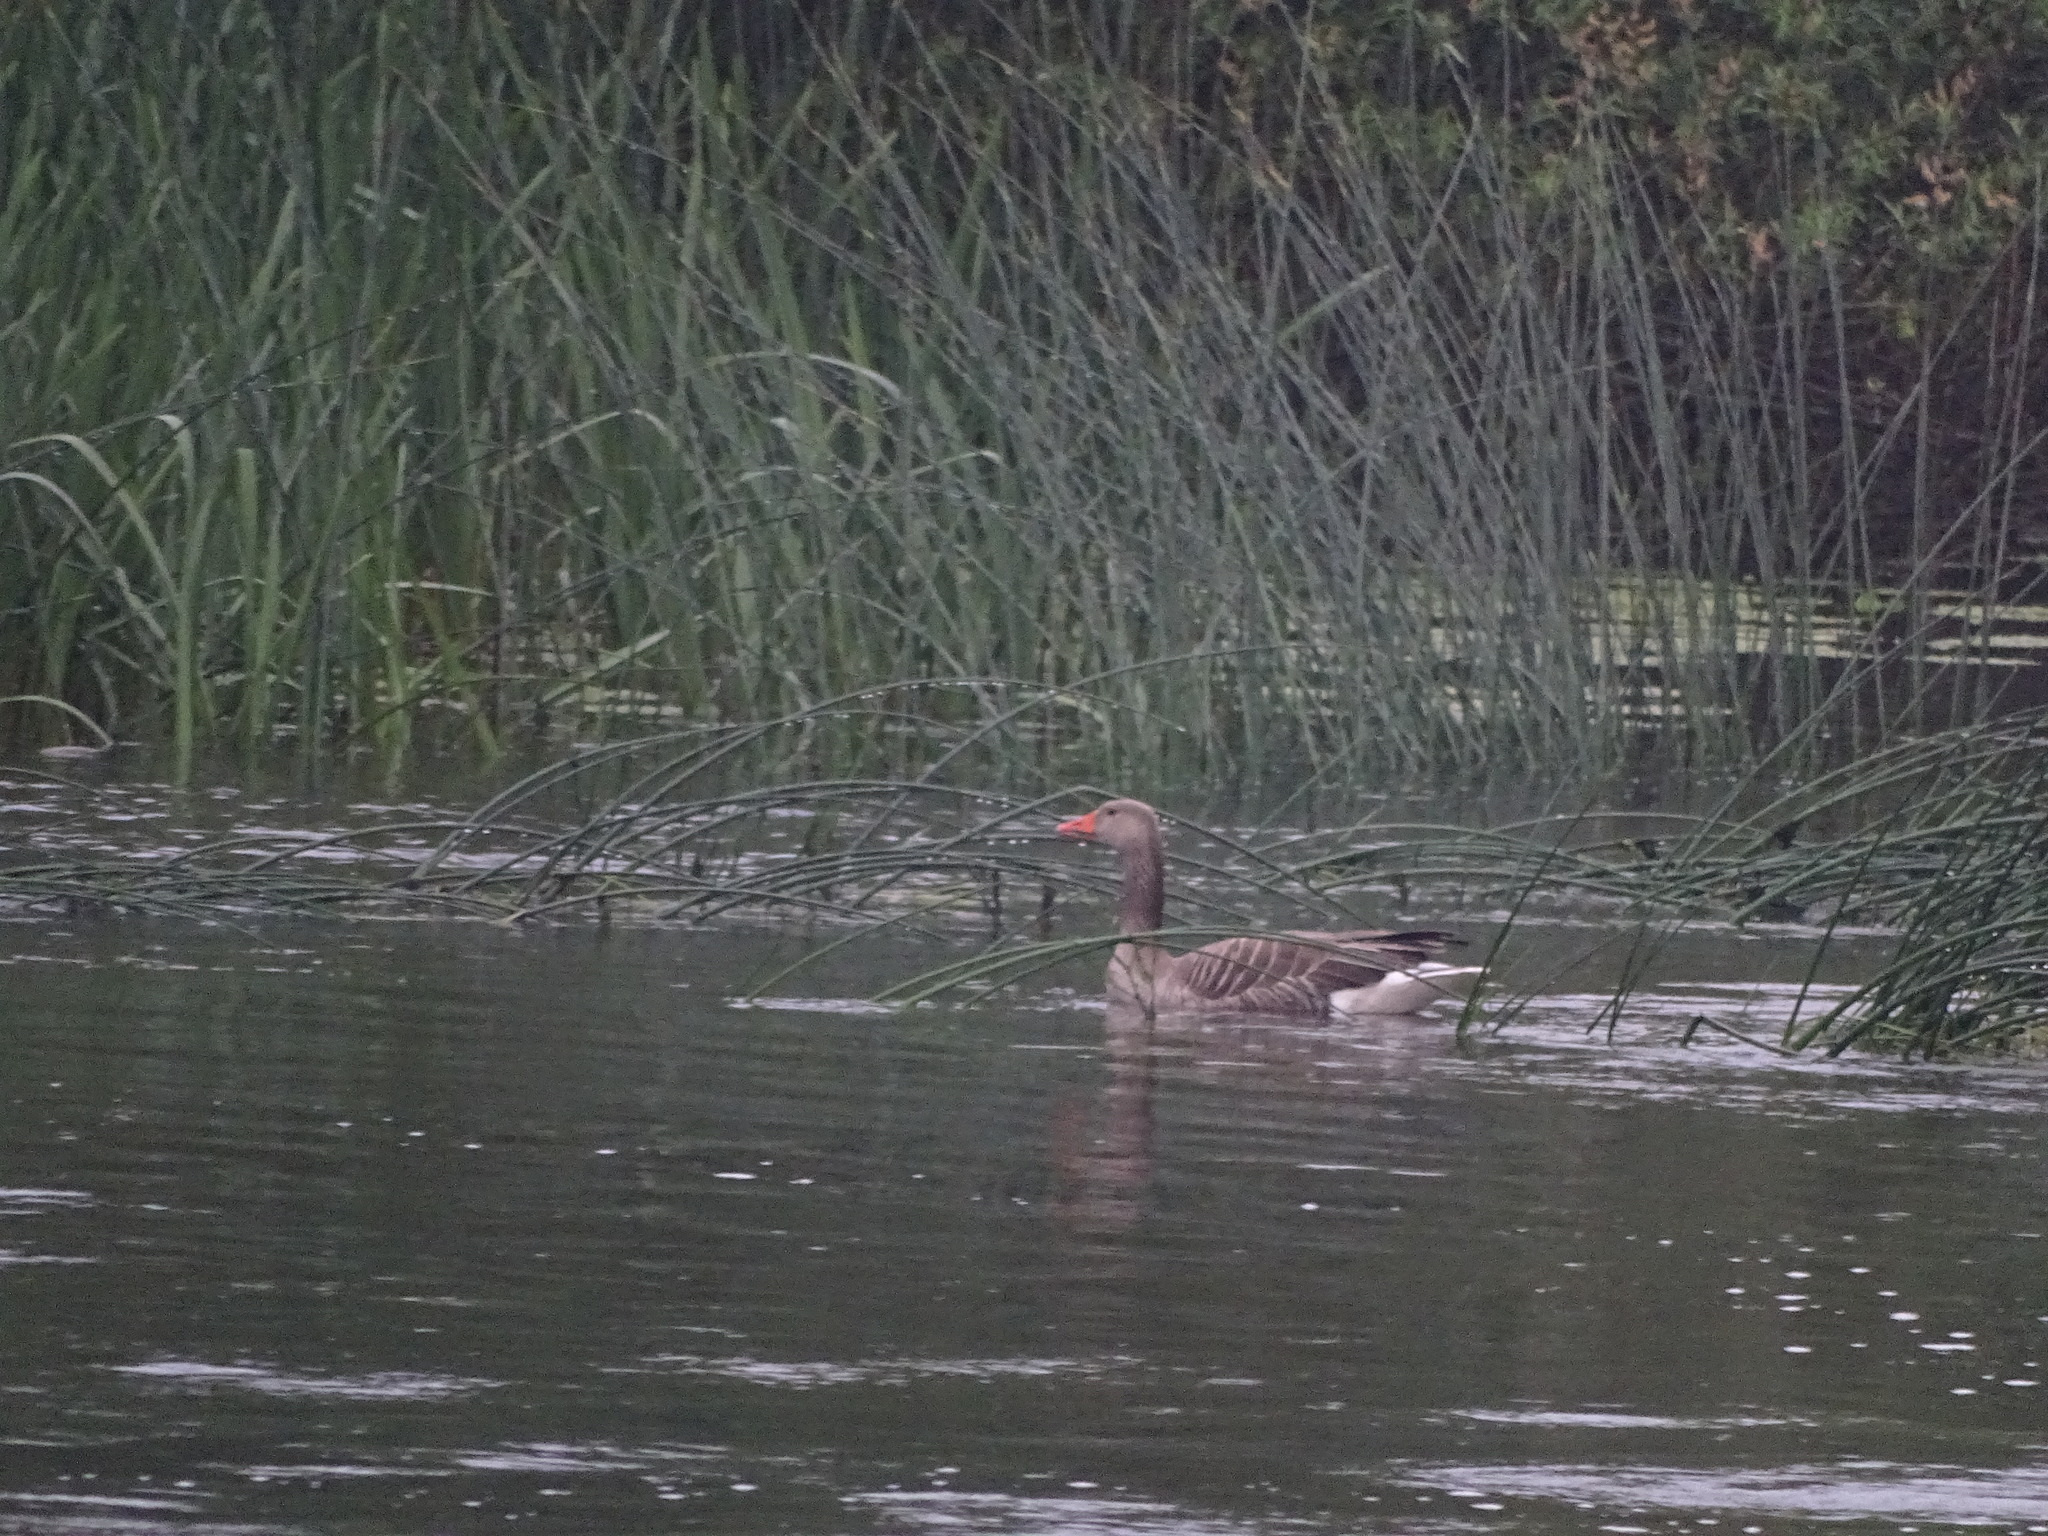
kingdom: Animalia
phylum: Chordata
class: Aves
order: Anseriformes
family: Anatidae
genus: Anser
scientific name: Anser anser
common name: Greylag goose
